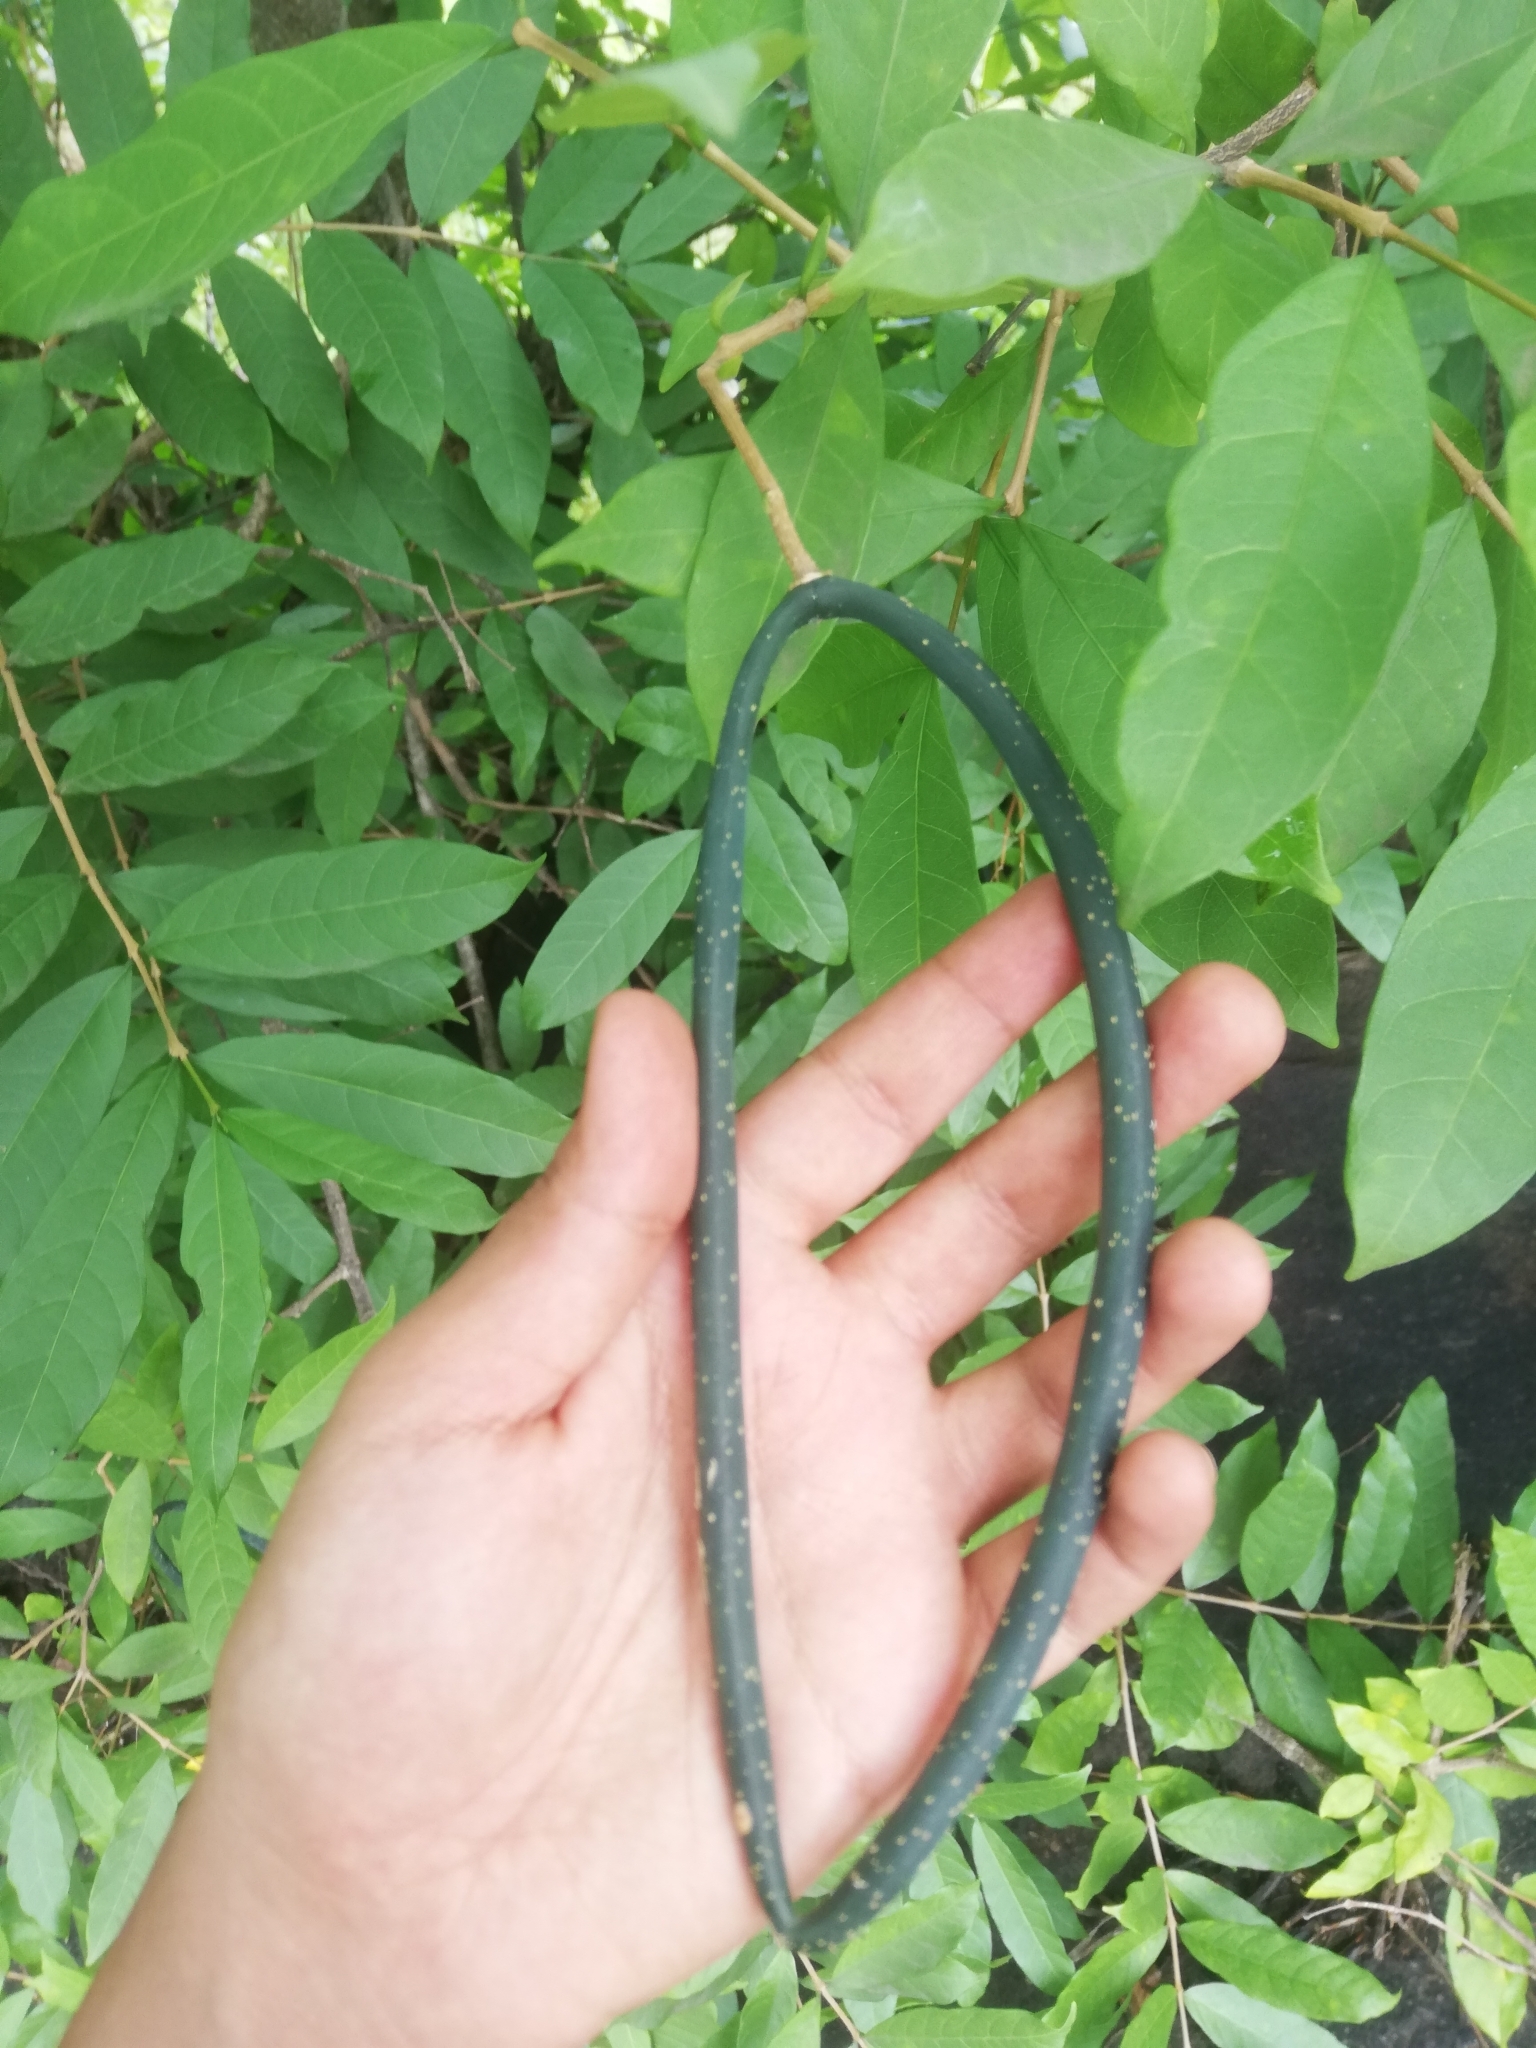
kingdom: Plantae
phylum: Tracheophyta
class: Magnoliopsida
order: Gentianales
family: Apocynaceae
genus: Wrightia
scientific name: Wrightia tinctoria
